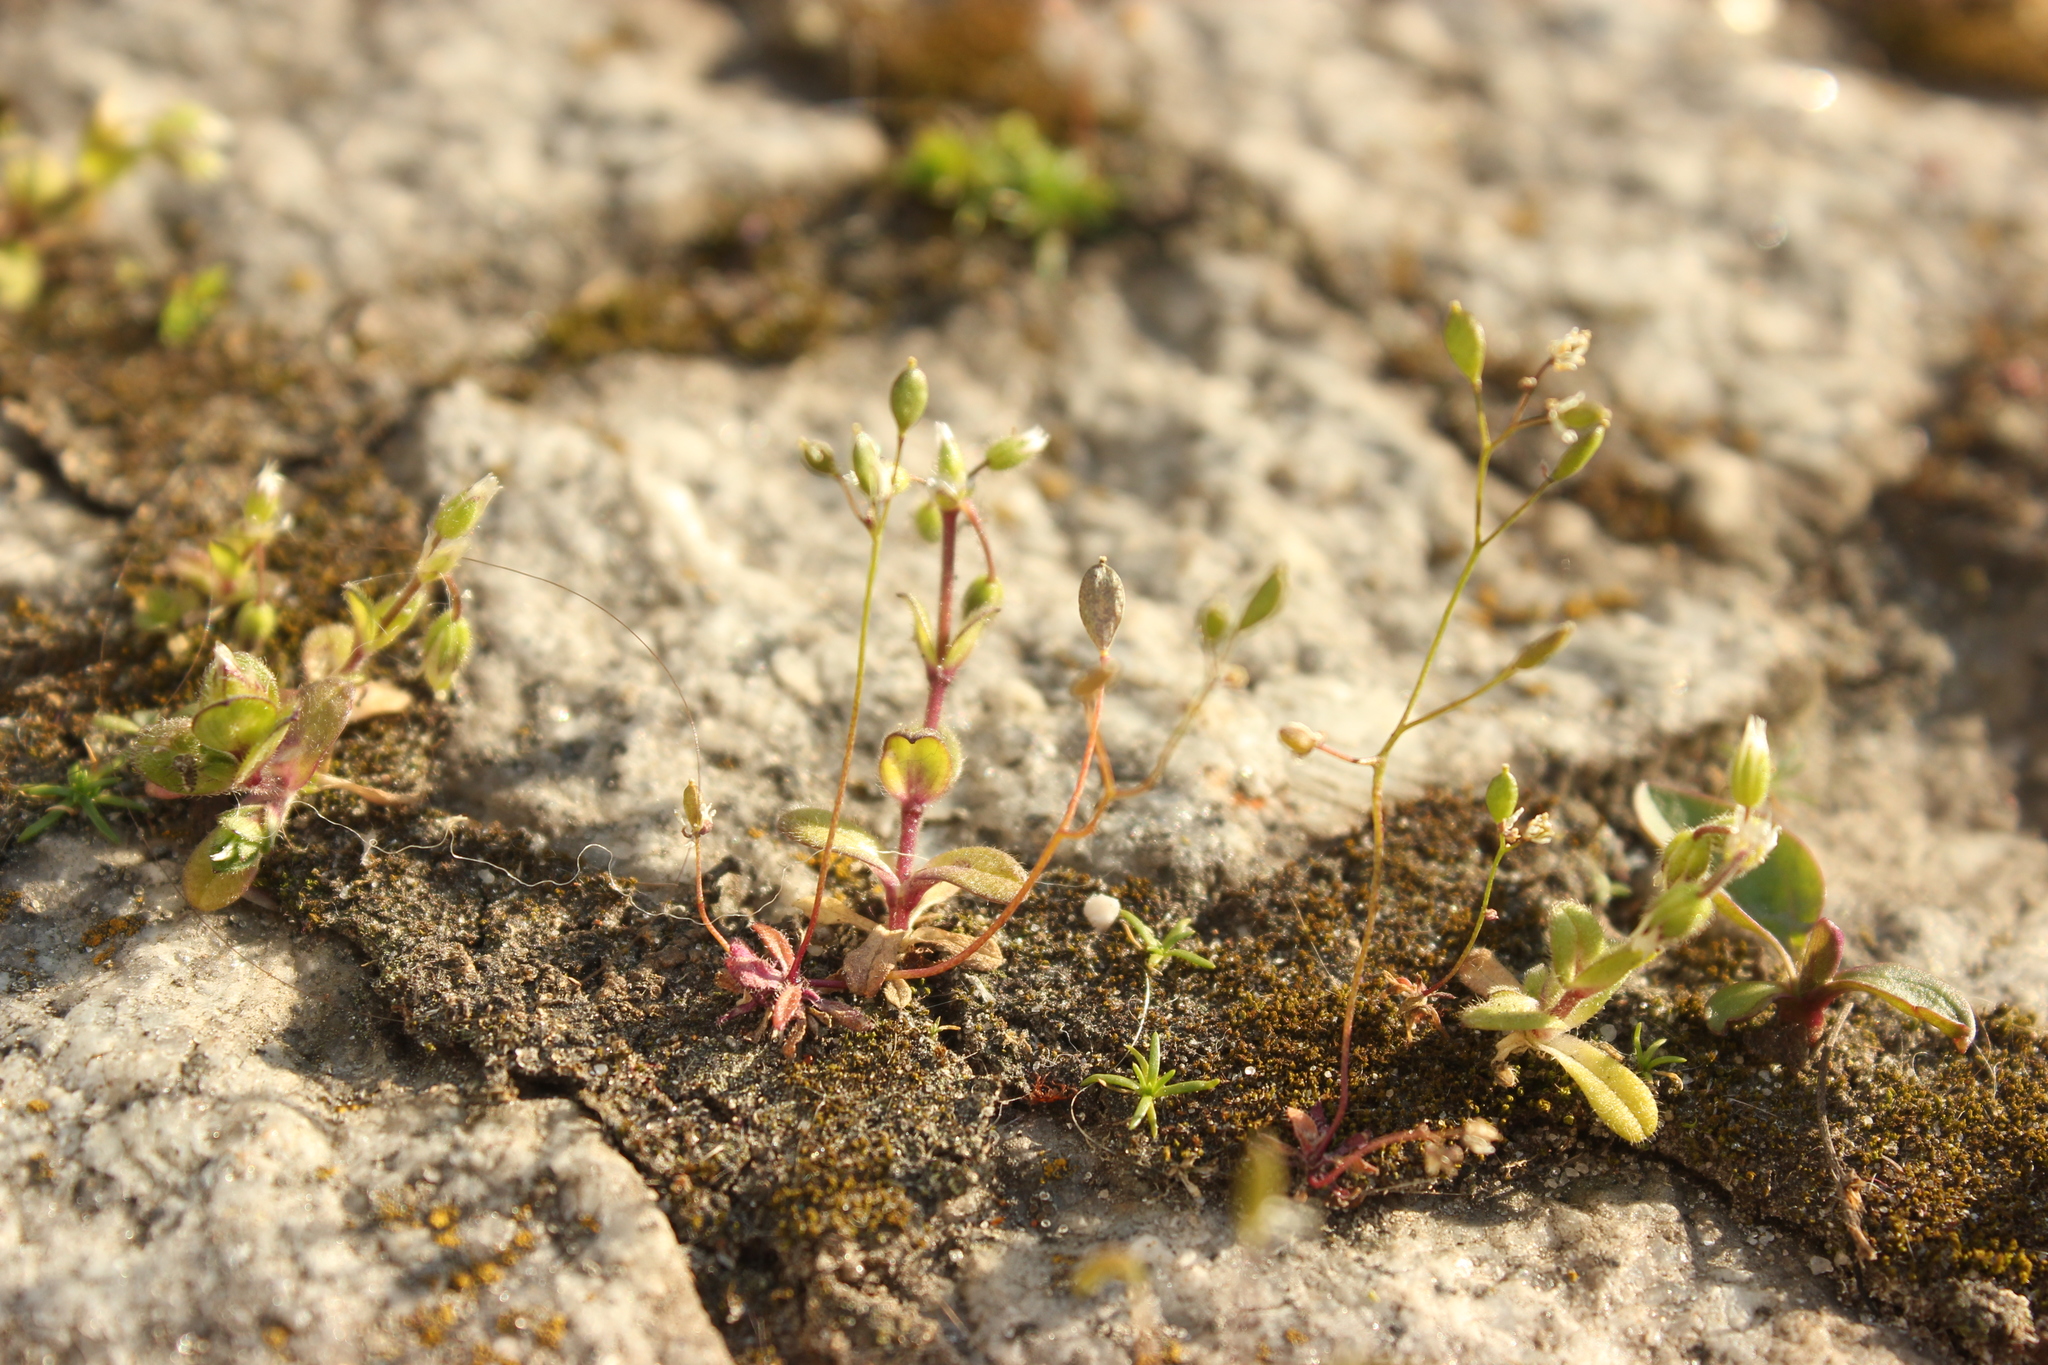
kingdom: Plantae
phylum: Tracheophyta
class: Magnoliopsida
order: Brassicales
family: Brassicaceae
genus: Draba
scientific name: Draba verna
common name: Spring draba
